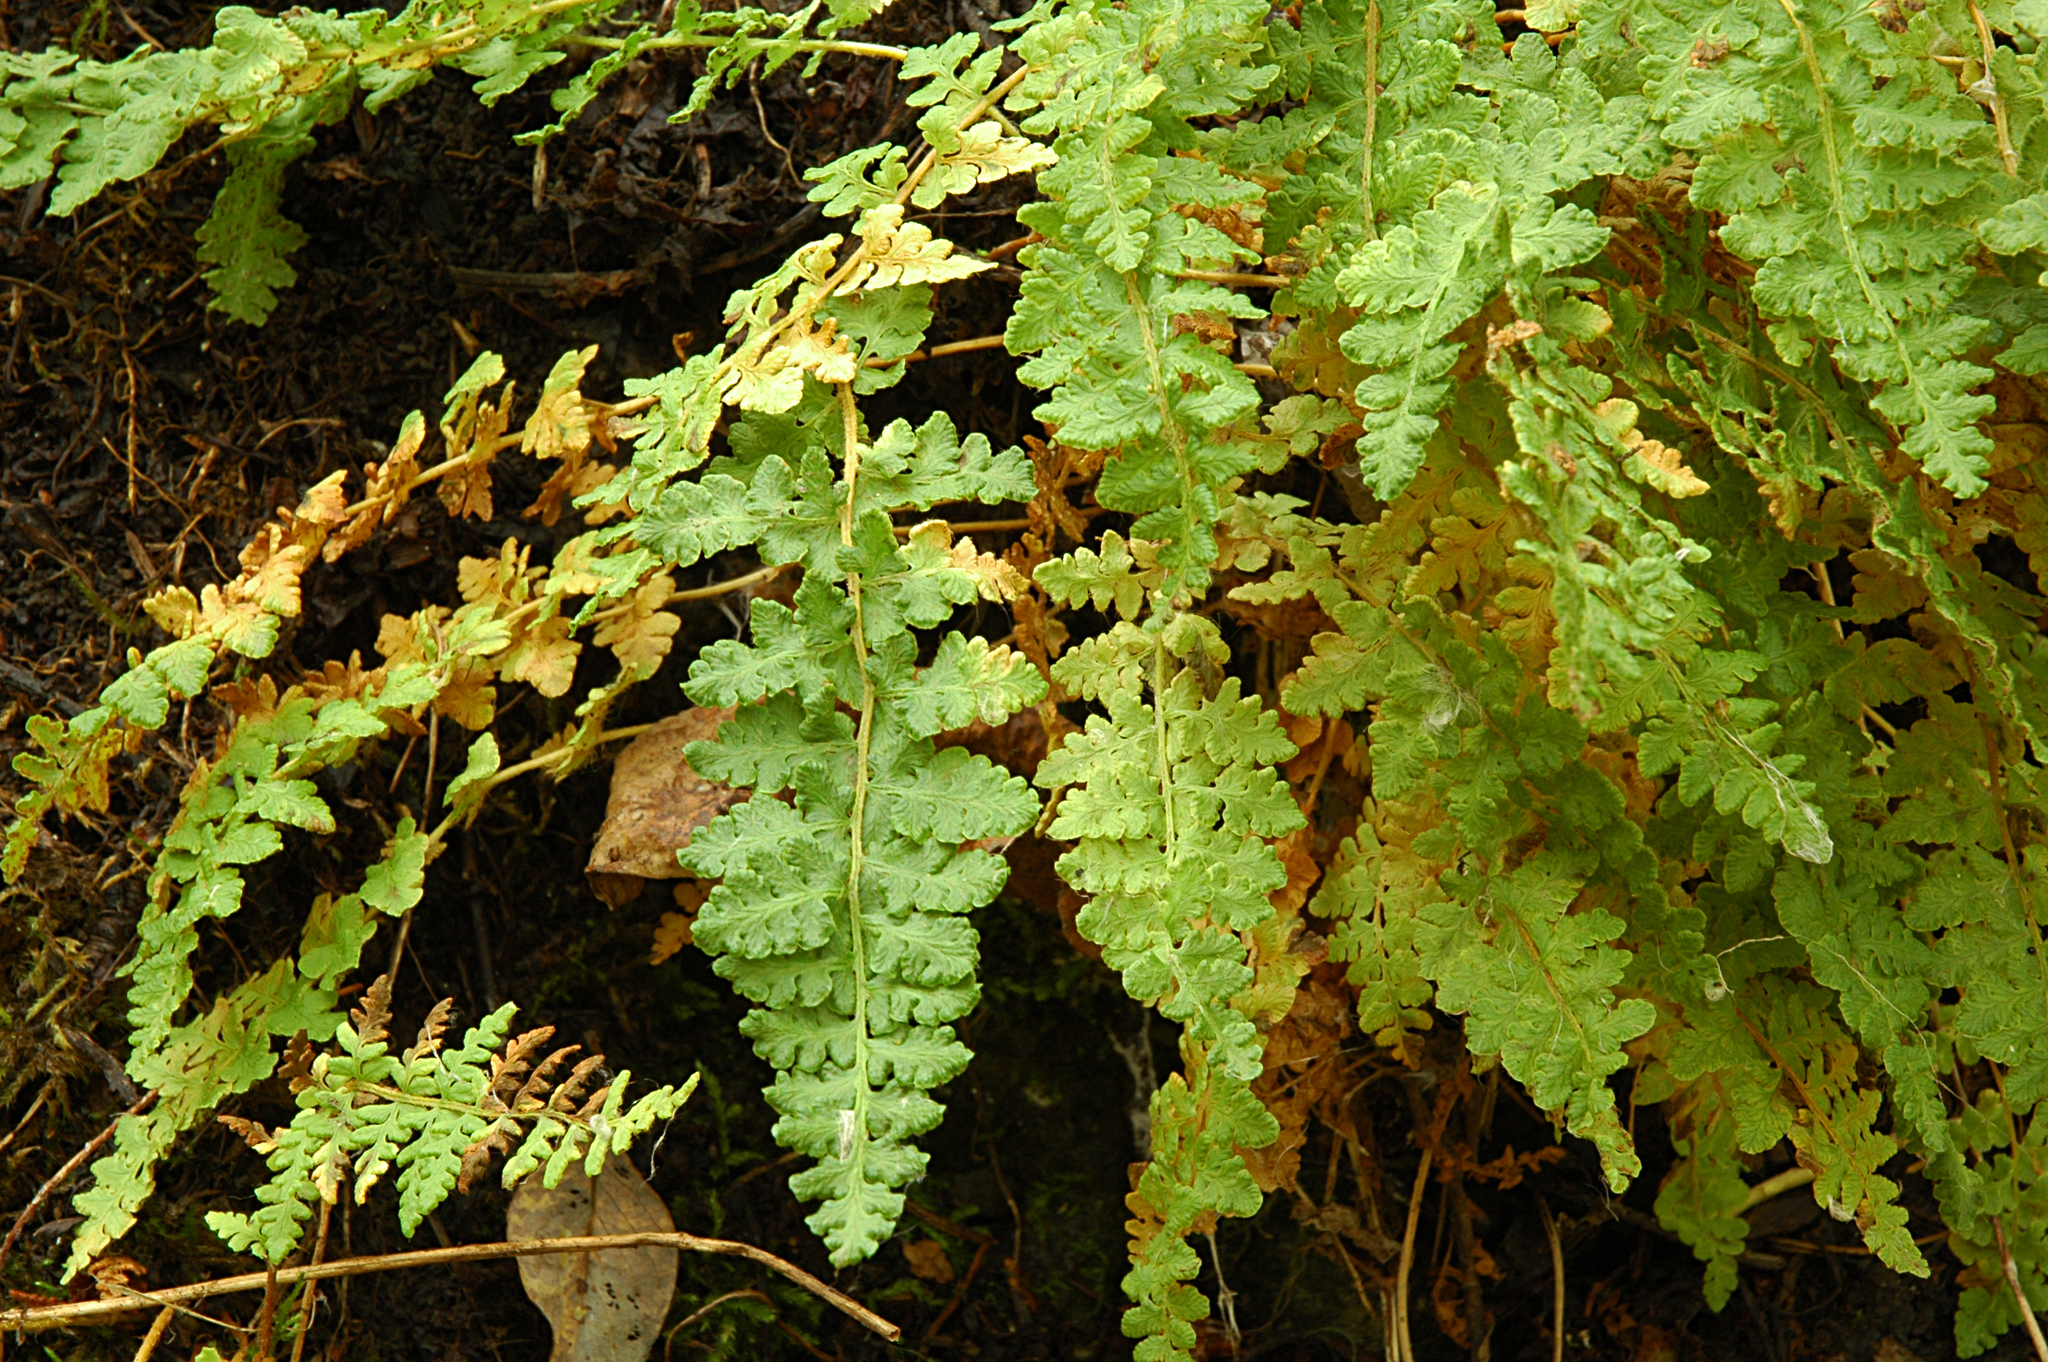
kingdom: Plantae
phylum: Tracheophyta
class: Polypodiopsida
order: Polypodiales
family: Woodsiaceae
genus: Woodsia
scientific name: Woodsia ilvensis
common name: Fragrant woodsia
